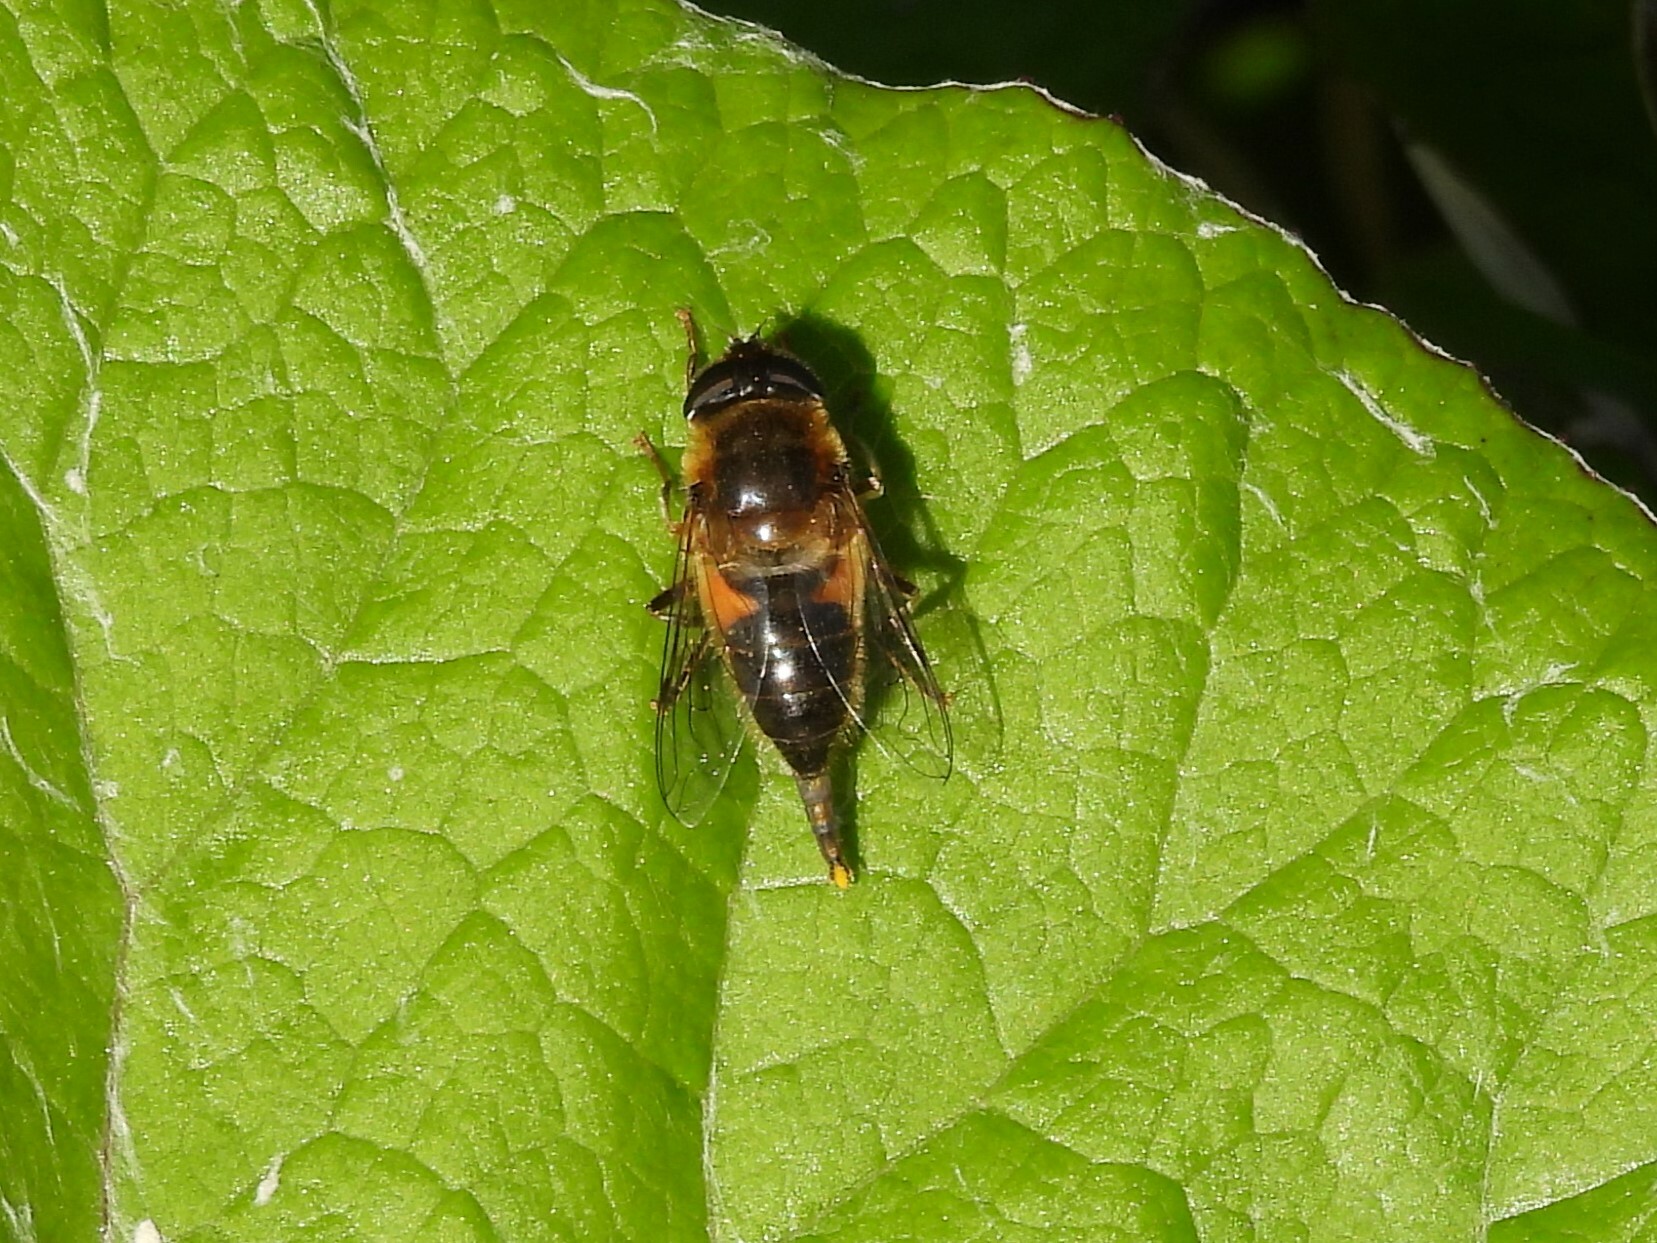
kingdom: Animalia
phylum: Arthropoda
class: Insecta
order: Diptera
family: Syrphidae
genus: Eristalis
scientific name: Eristalis pertinax
